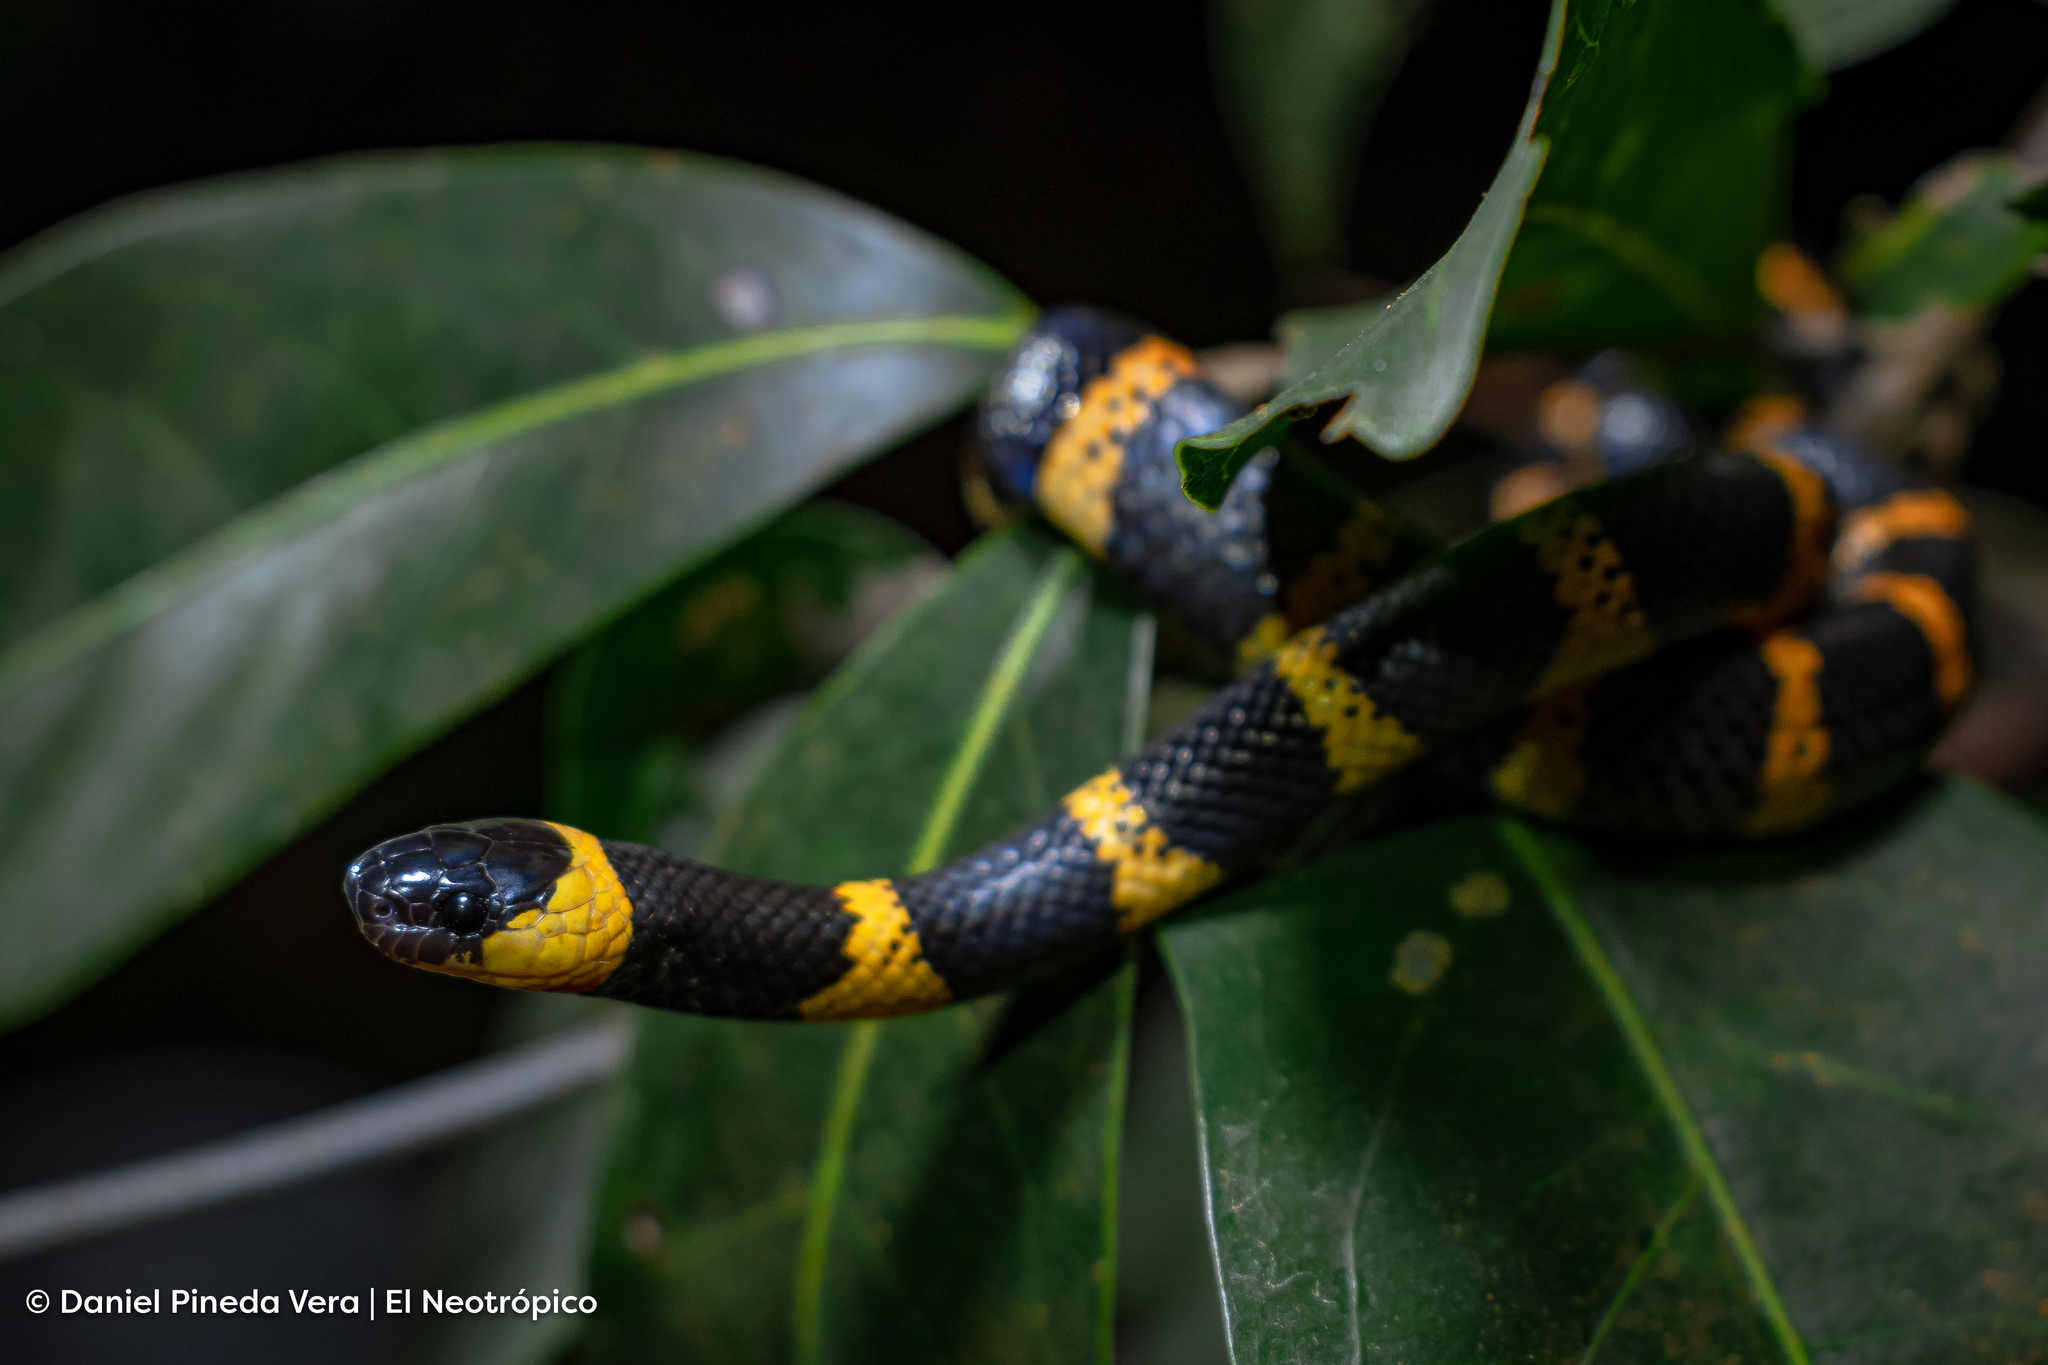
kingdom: Animalia
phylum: Chordata
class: Squamata
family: Colubridae
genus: Geophis
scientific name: Geophis
